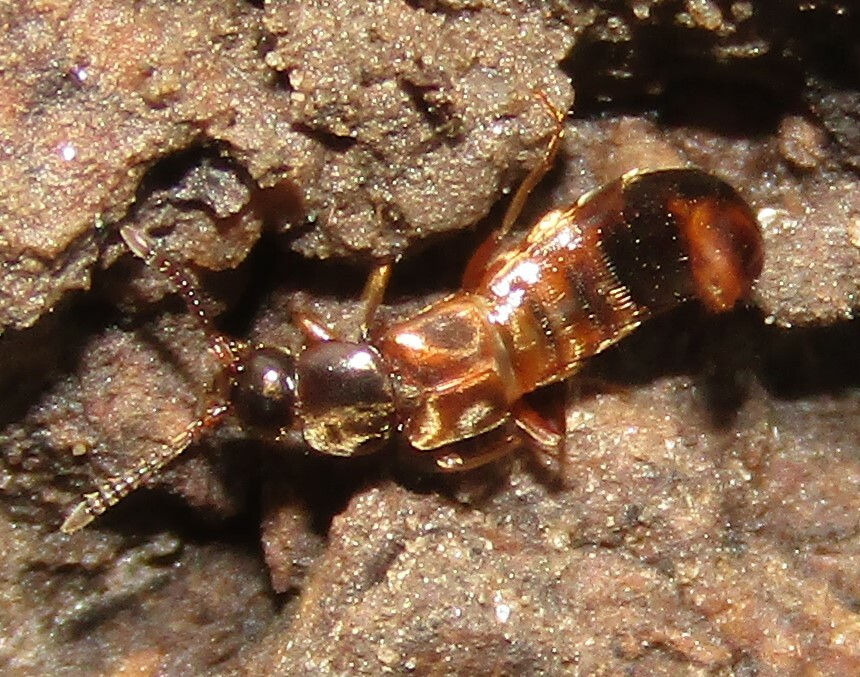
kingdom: Animalia
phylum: Arthropoda
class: Insecta
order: Coleoptera
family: Staphylinidae
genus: Pella
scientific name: Pella limbata
